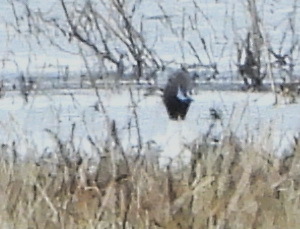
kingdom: Animalia
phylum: Chordata
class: Aves
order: Anseriformes
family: Anatidae
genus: Anas
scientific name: Anas acuta
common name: Northern pintail
